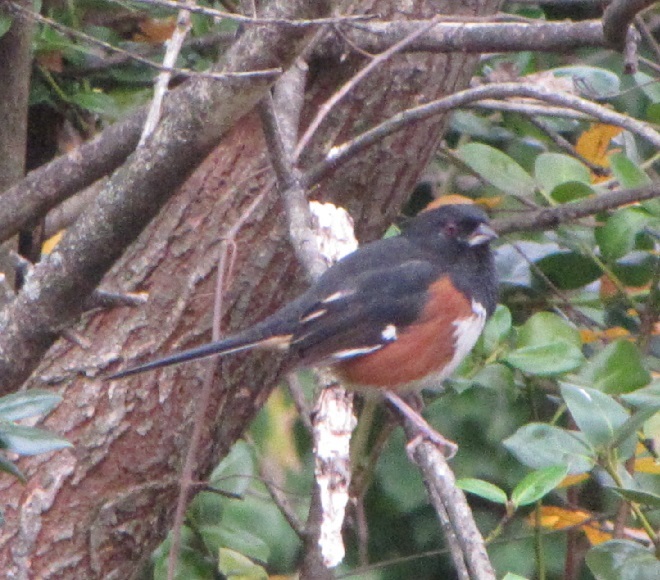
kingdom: Animalia
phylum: Chordata
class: Aves
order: Passeriformes
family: Passerellidae
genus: Pipilo
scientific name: Pipilo erythrophthalmus
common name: Eastern towhee
